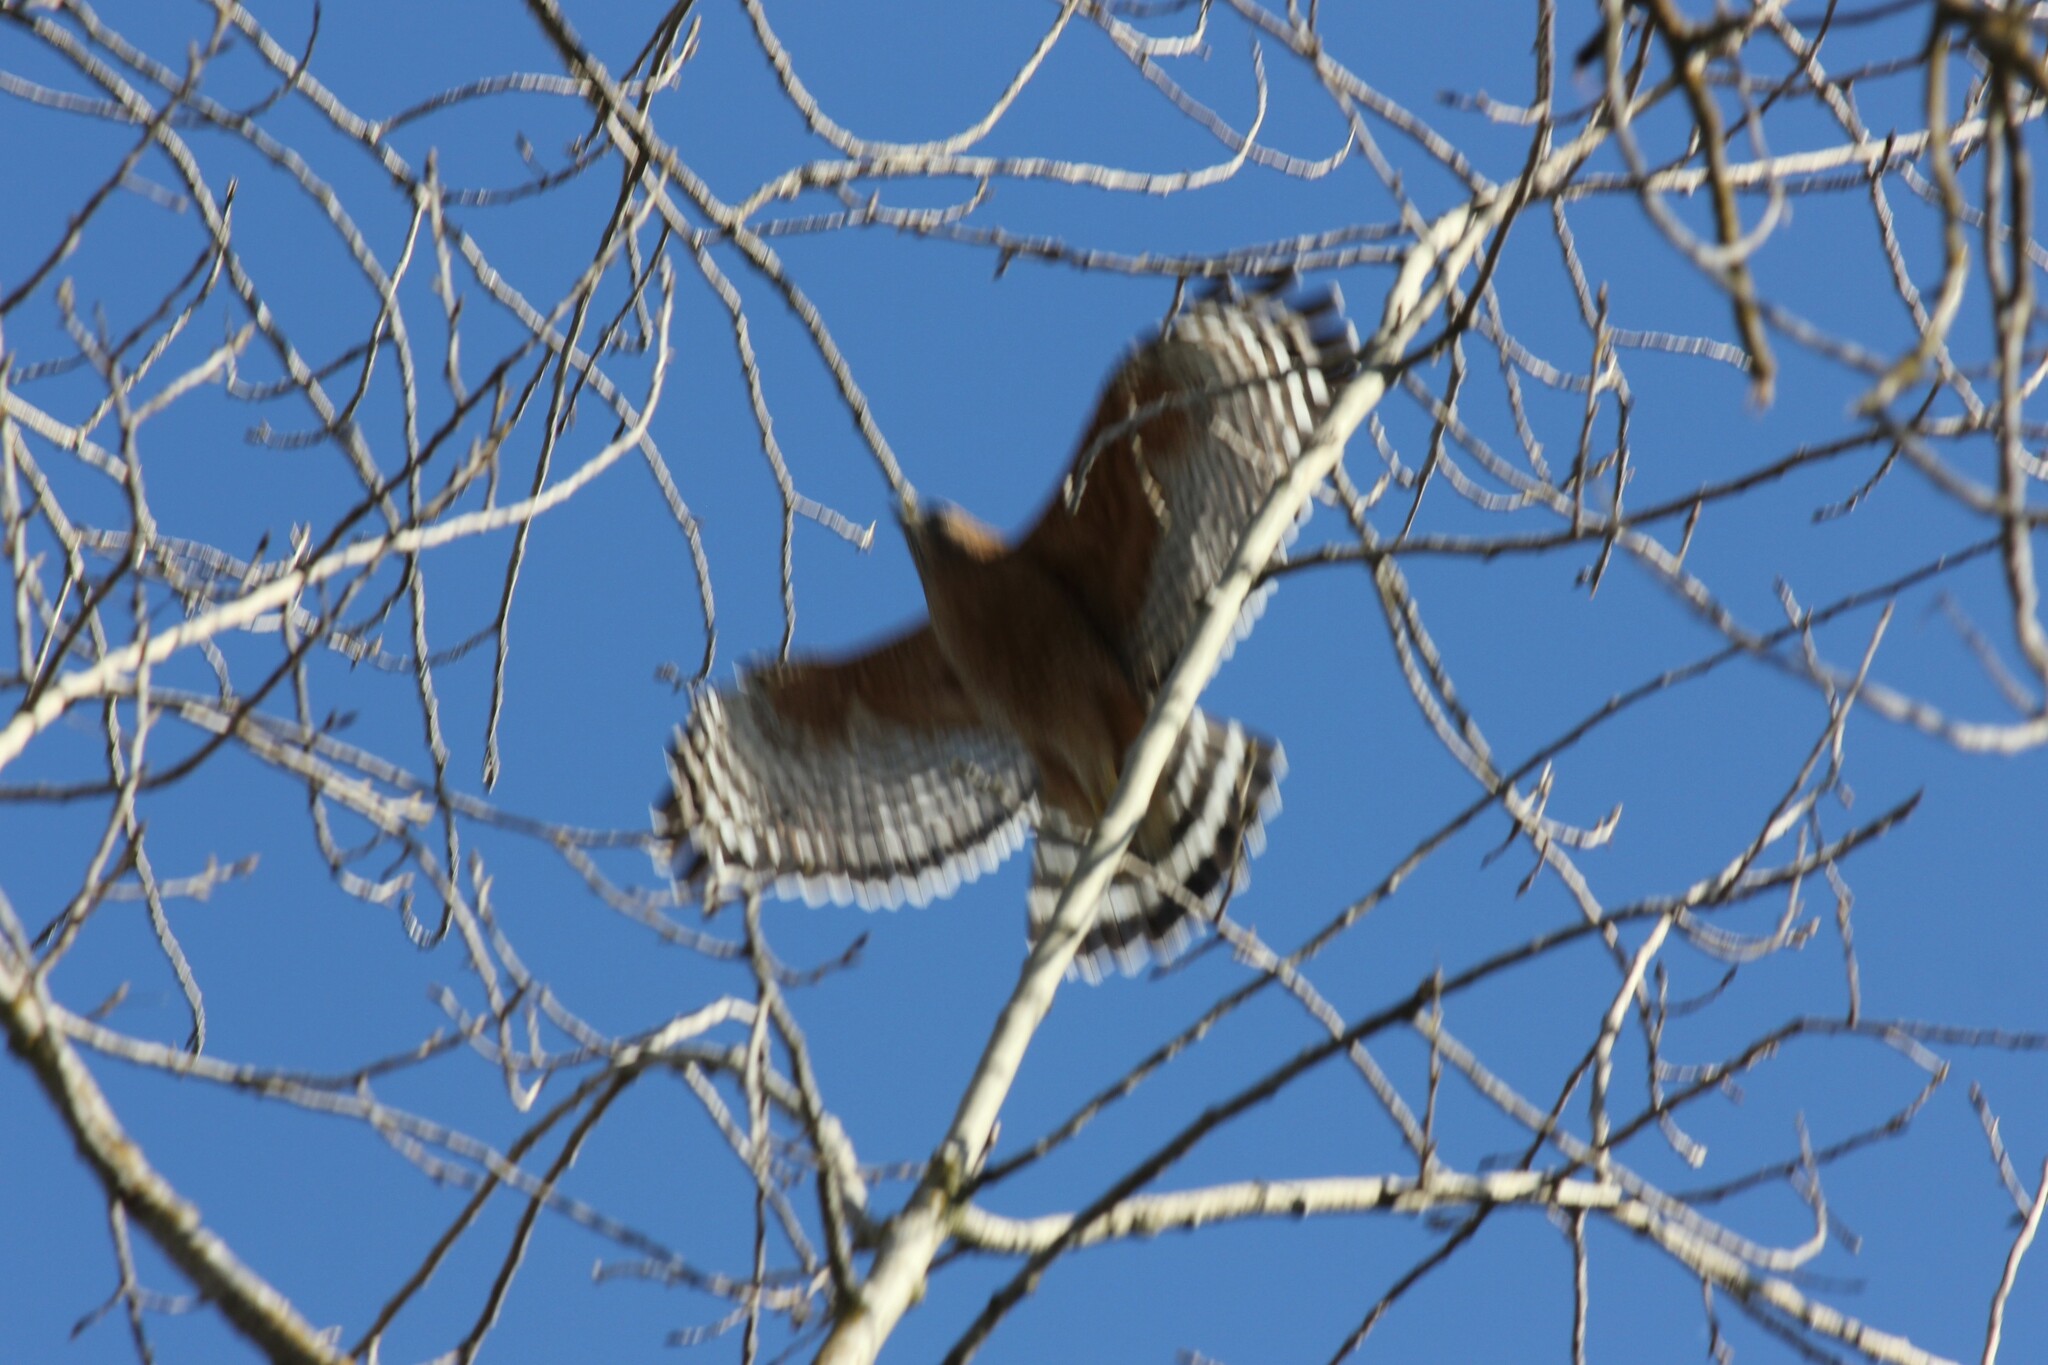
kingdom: Animalia
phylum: Chordata
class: Aves
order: Accipitriformes
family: Accipitridae
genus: Buteo
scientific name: Buteo lineatus
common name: Red-shouldered hawk
